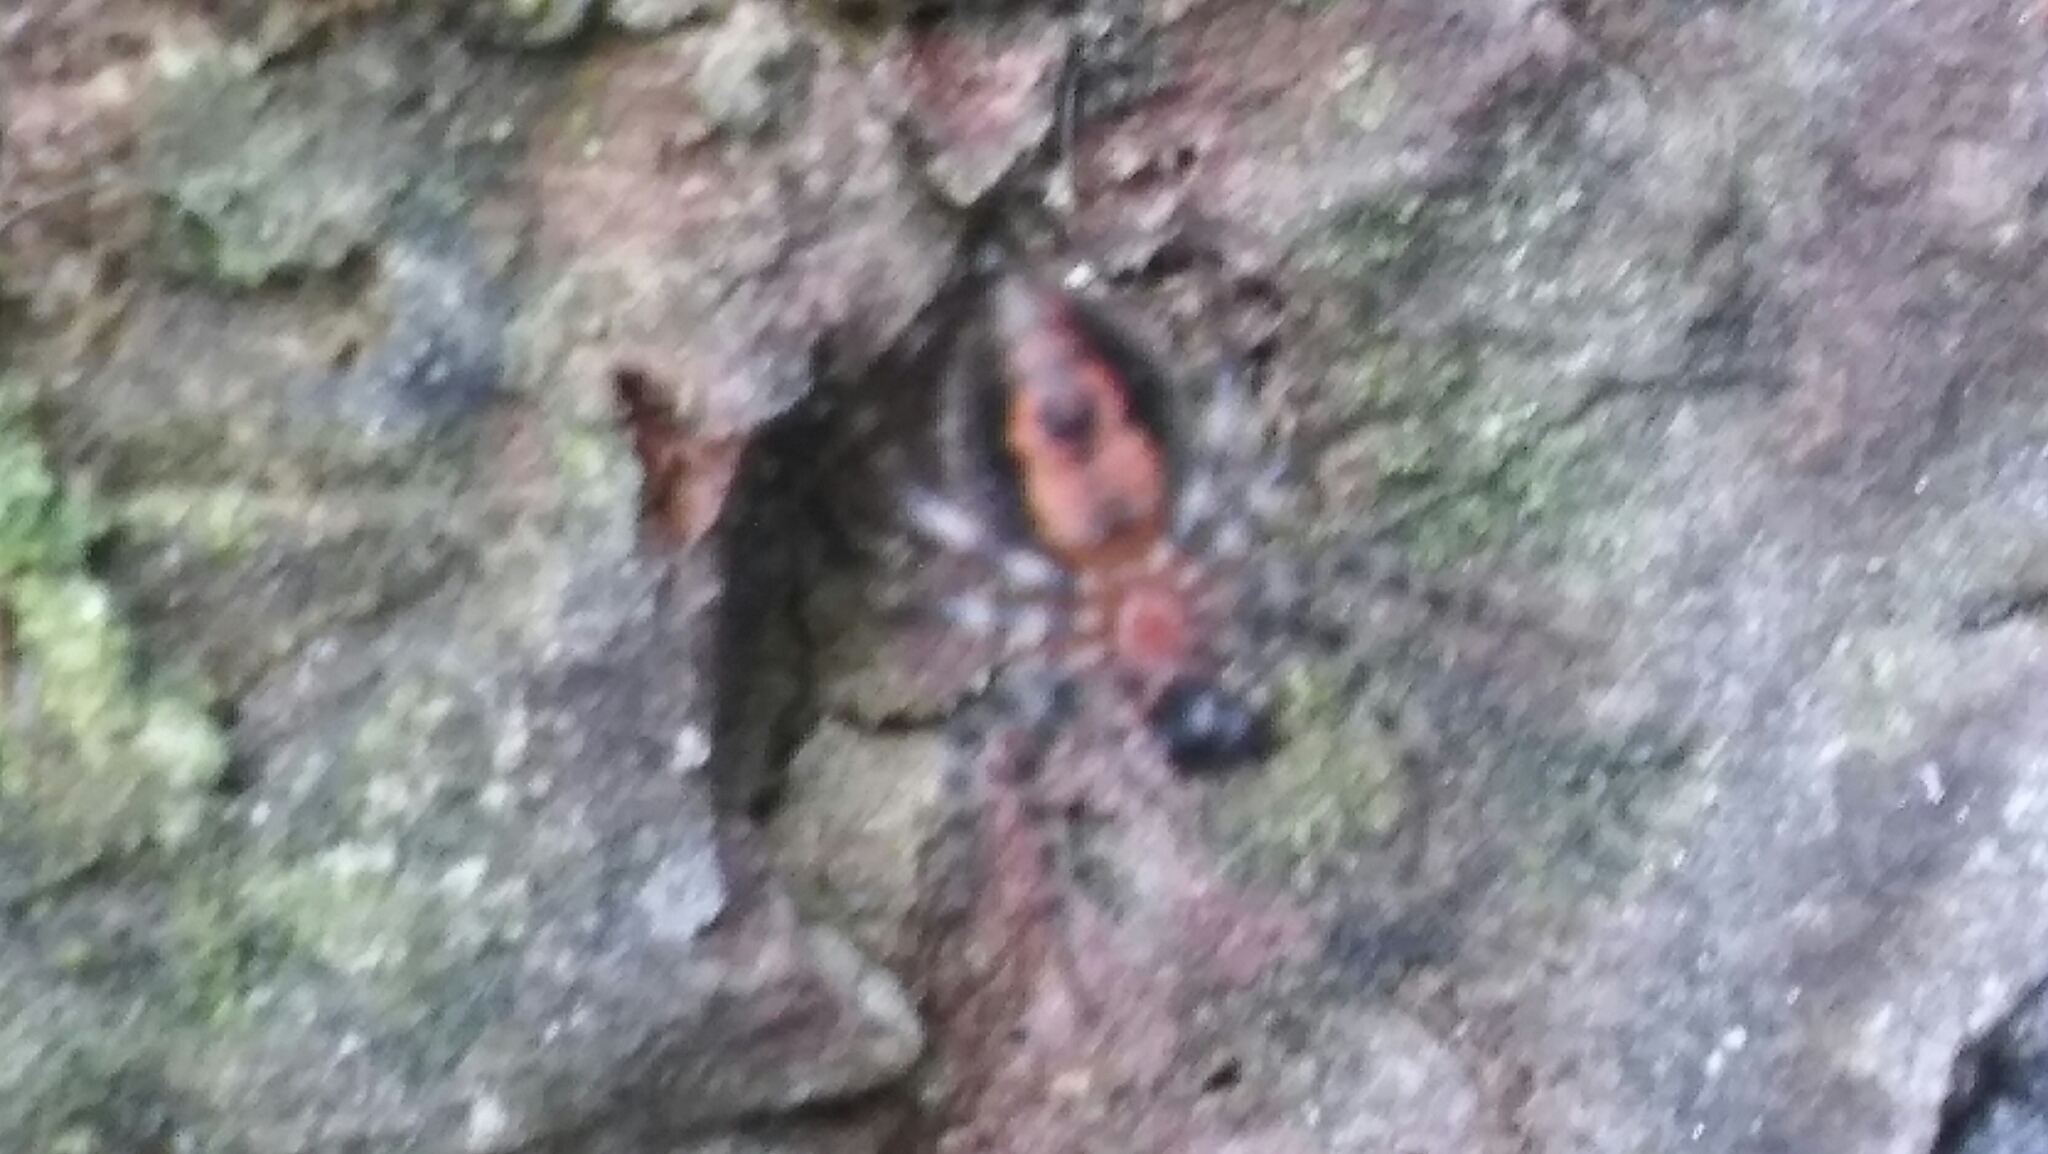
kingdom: Animalia
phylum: Arthropoda
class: Arachnida
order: Araneae
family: Araneidae
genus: Alpaida
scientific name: Alpaida gallardoi
